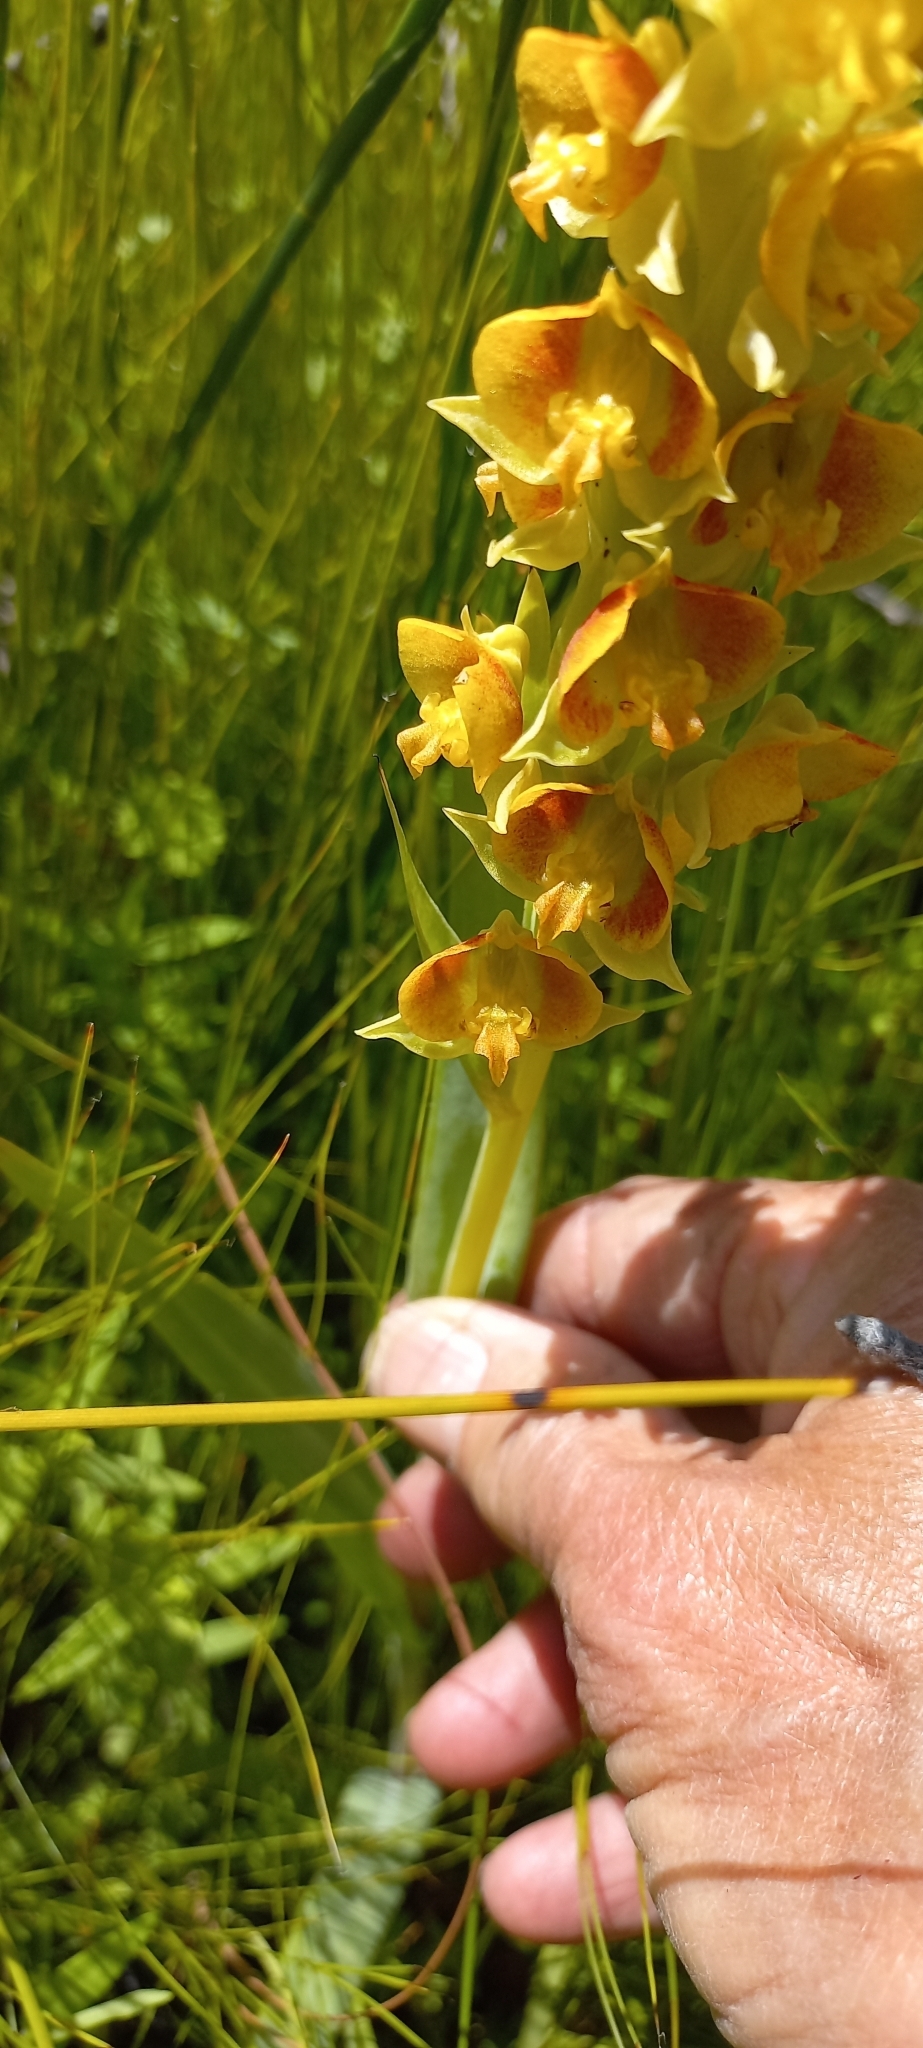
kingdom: Plantae
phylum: Tracheophyta
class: Liliopsida
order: Asparagales
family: Orchidaceae
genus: Pterygodium
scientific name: Pterygodium acutifolium
